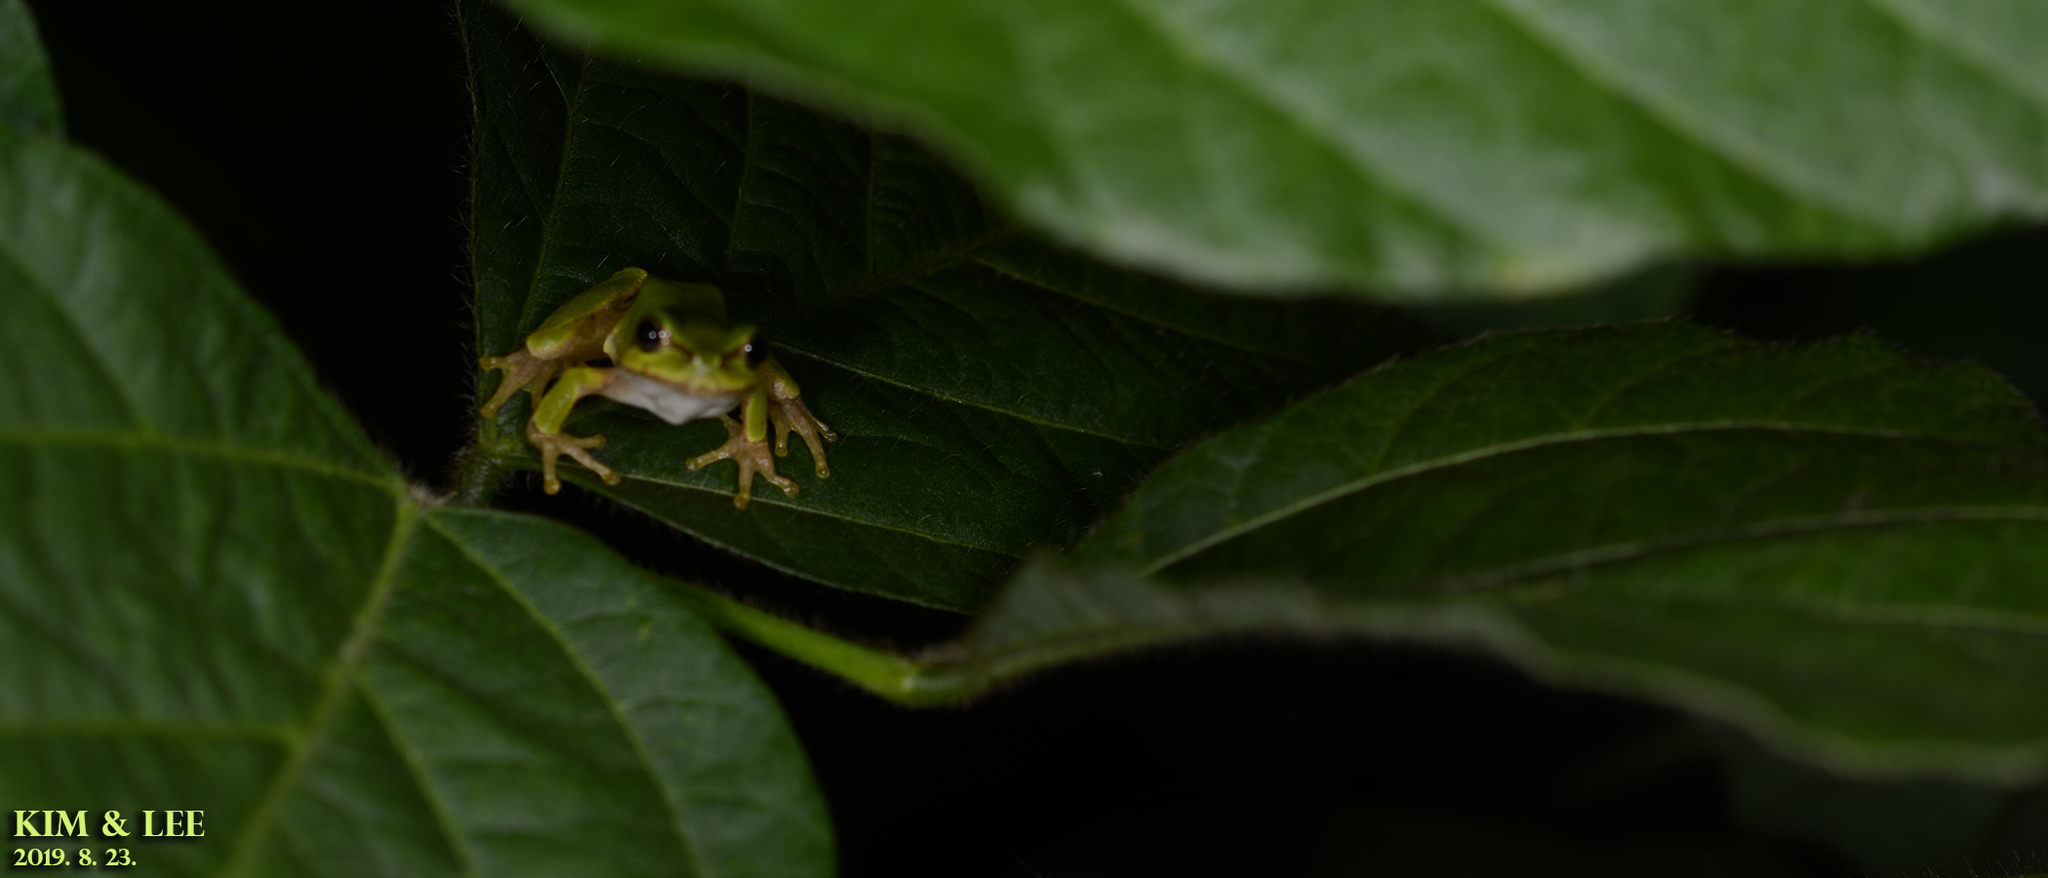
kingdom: Animalia
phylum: Chordata
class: Amphibia
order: Anura
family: Hylidae
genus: Dryophytes
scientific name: Dryophytes japonicus
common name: Japanese treefrog
